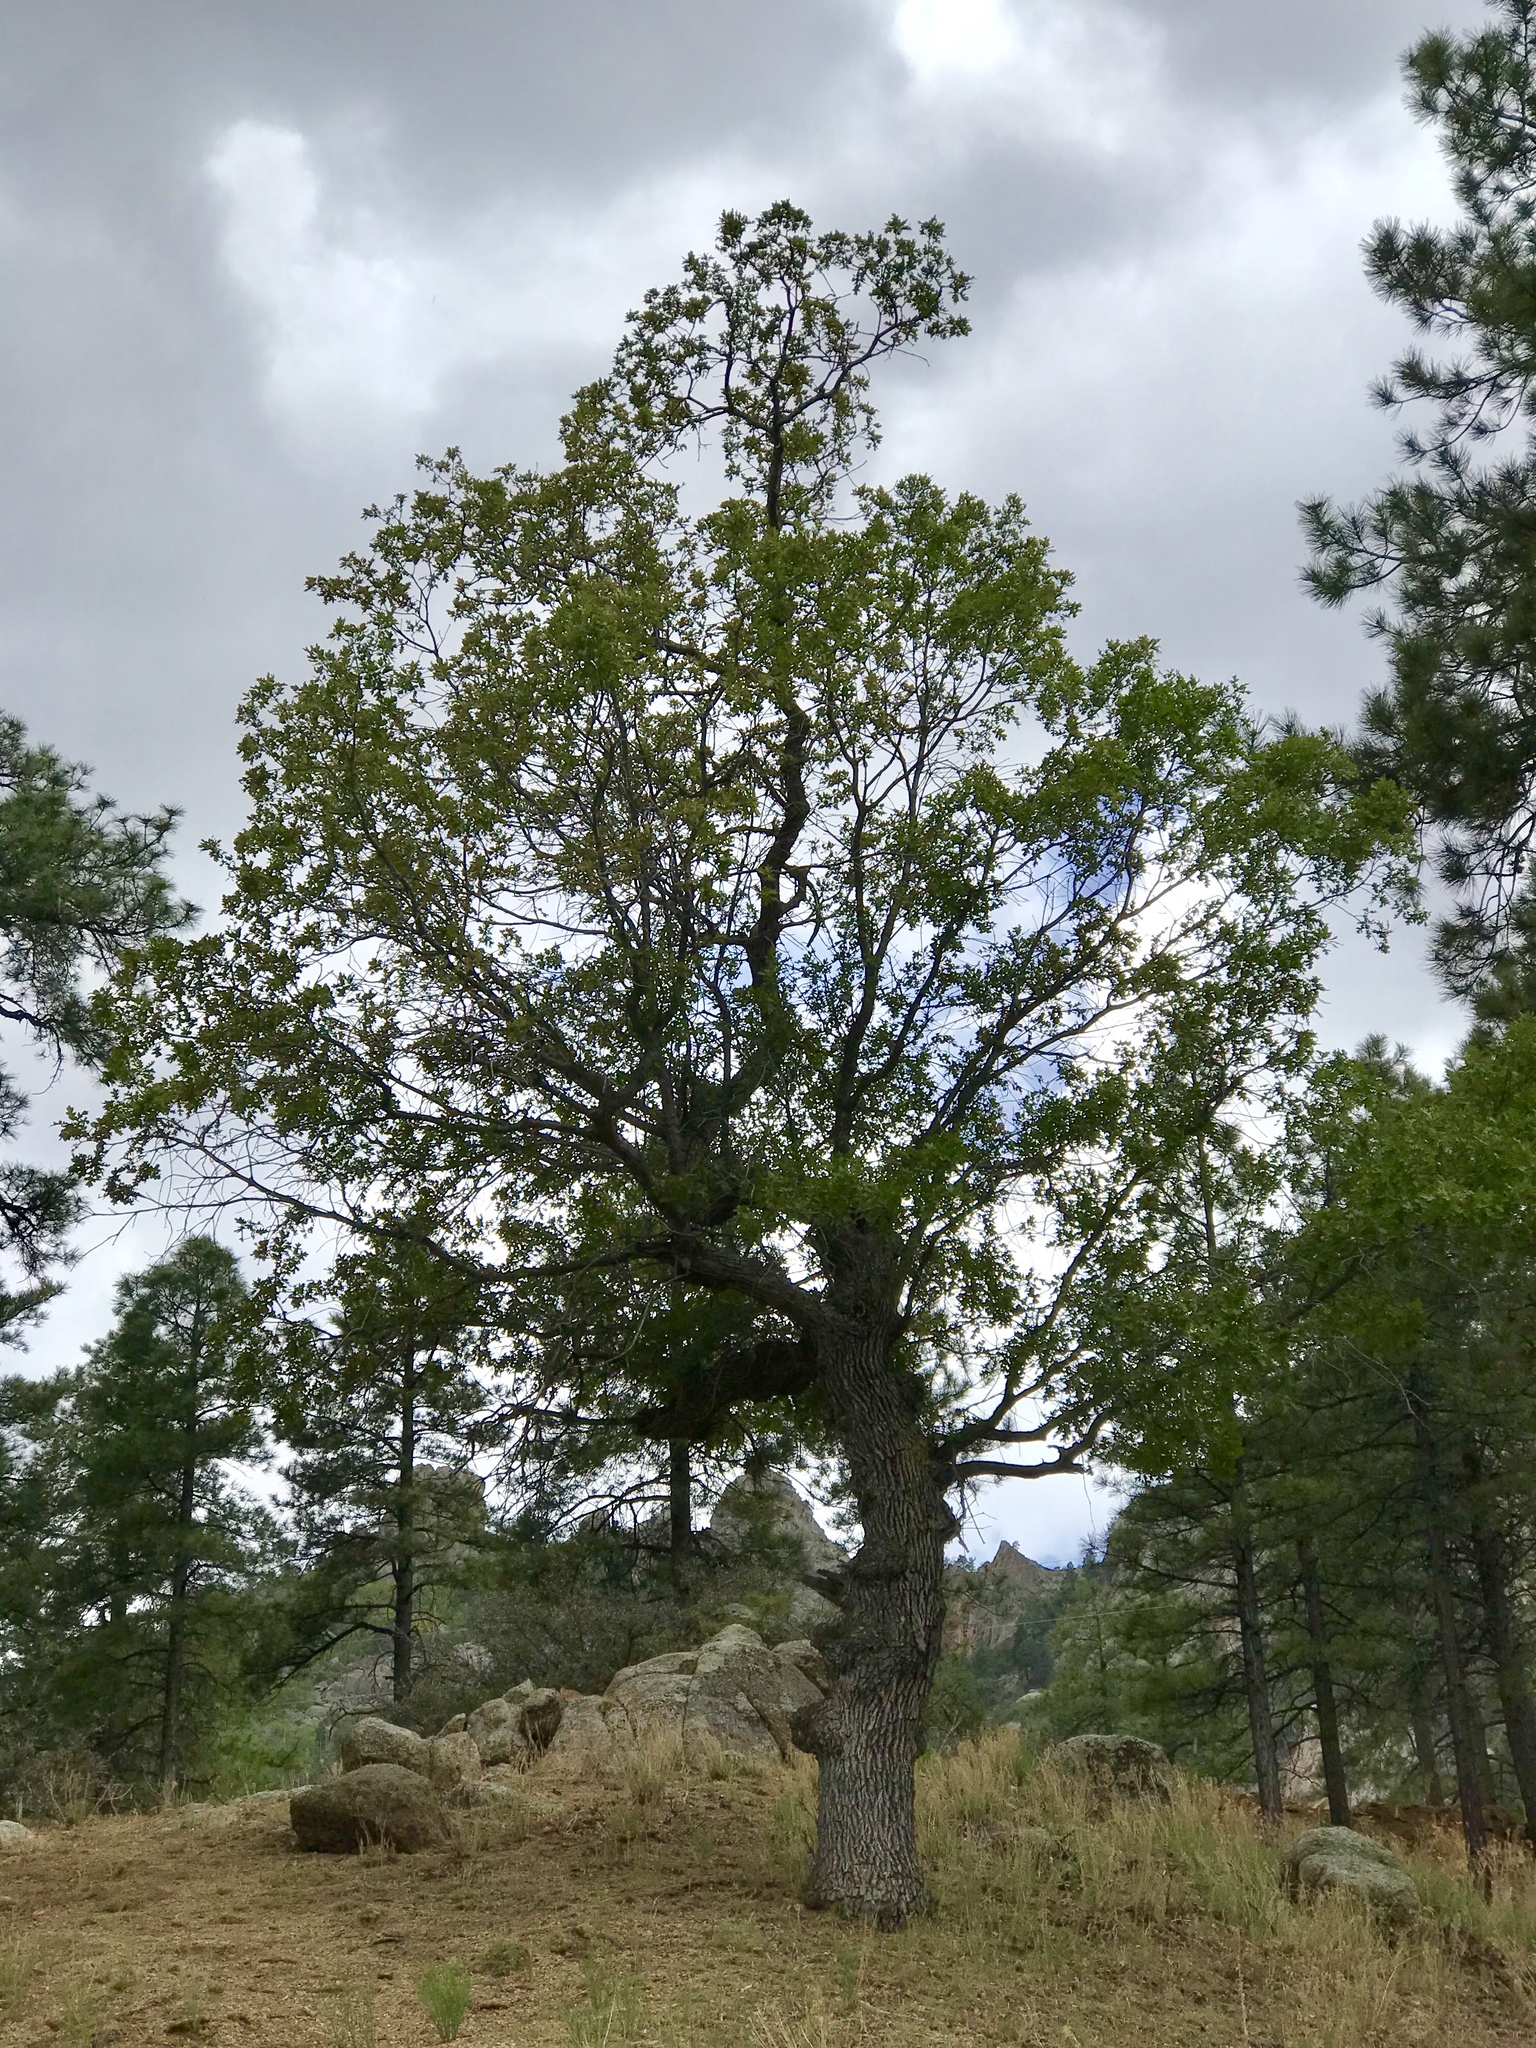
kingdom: Plantae
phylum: Tracheophyta
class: Magnoliopsida
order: Fagales
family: Fagaceae
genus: Quercus
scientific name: Quercus gambelii
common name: Gambel oak
